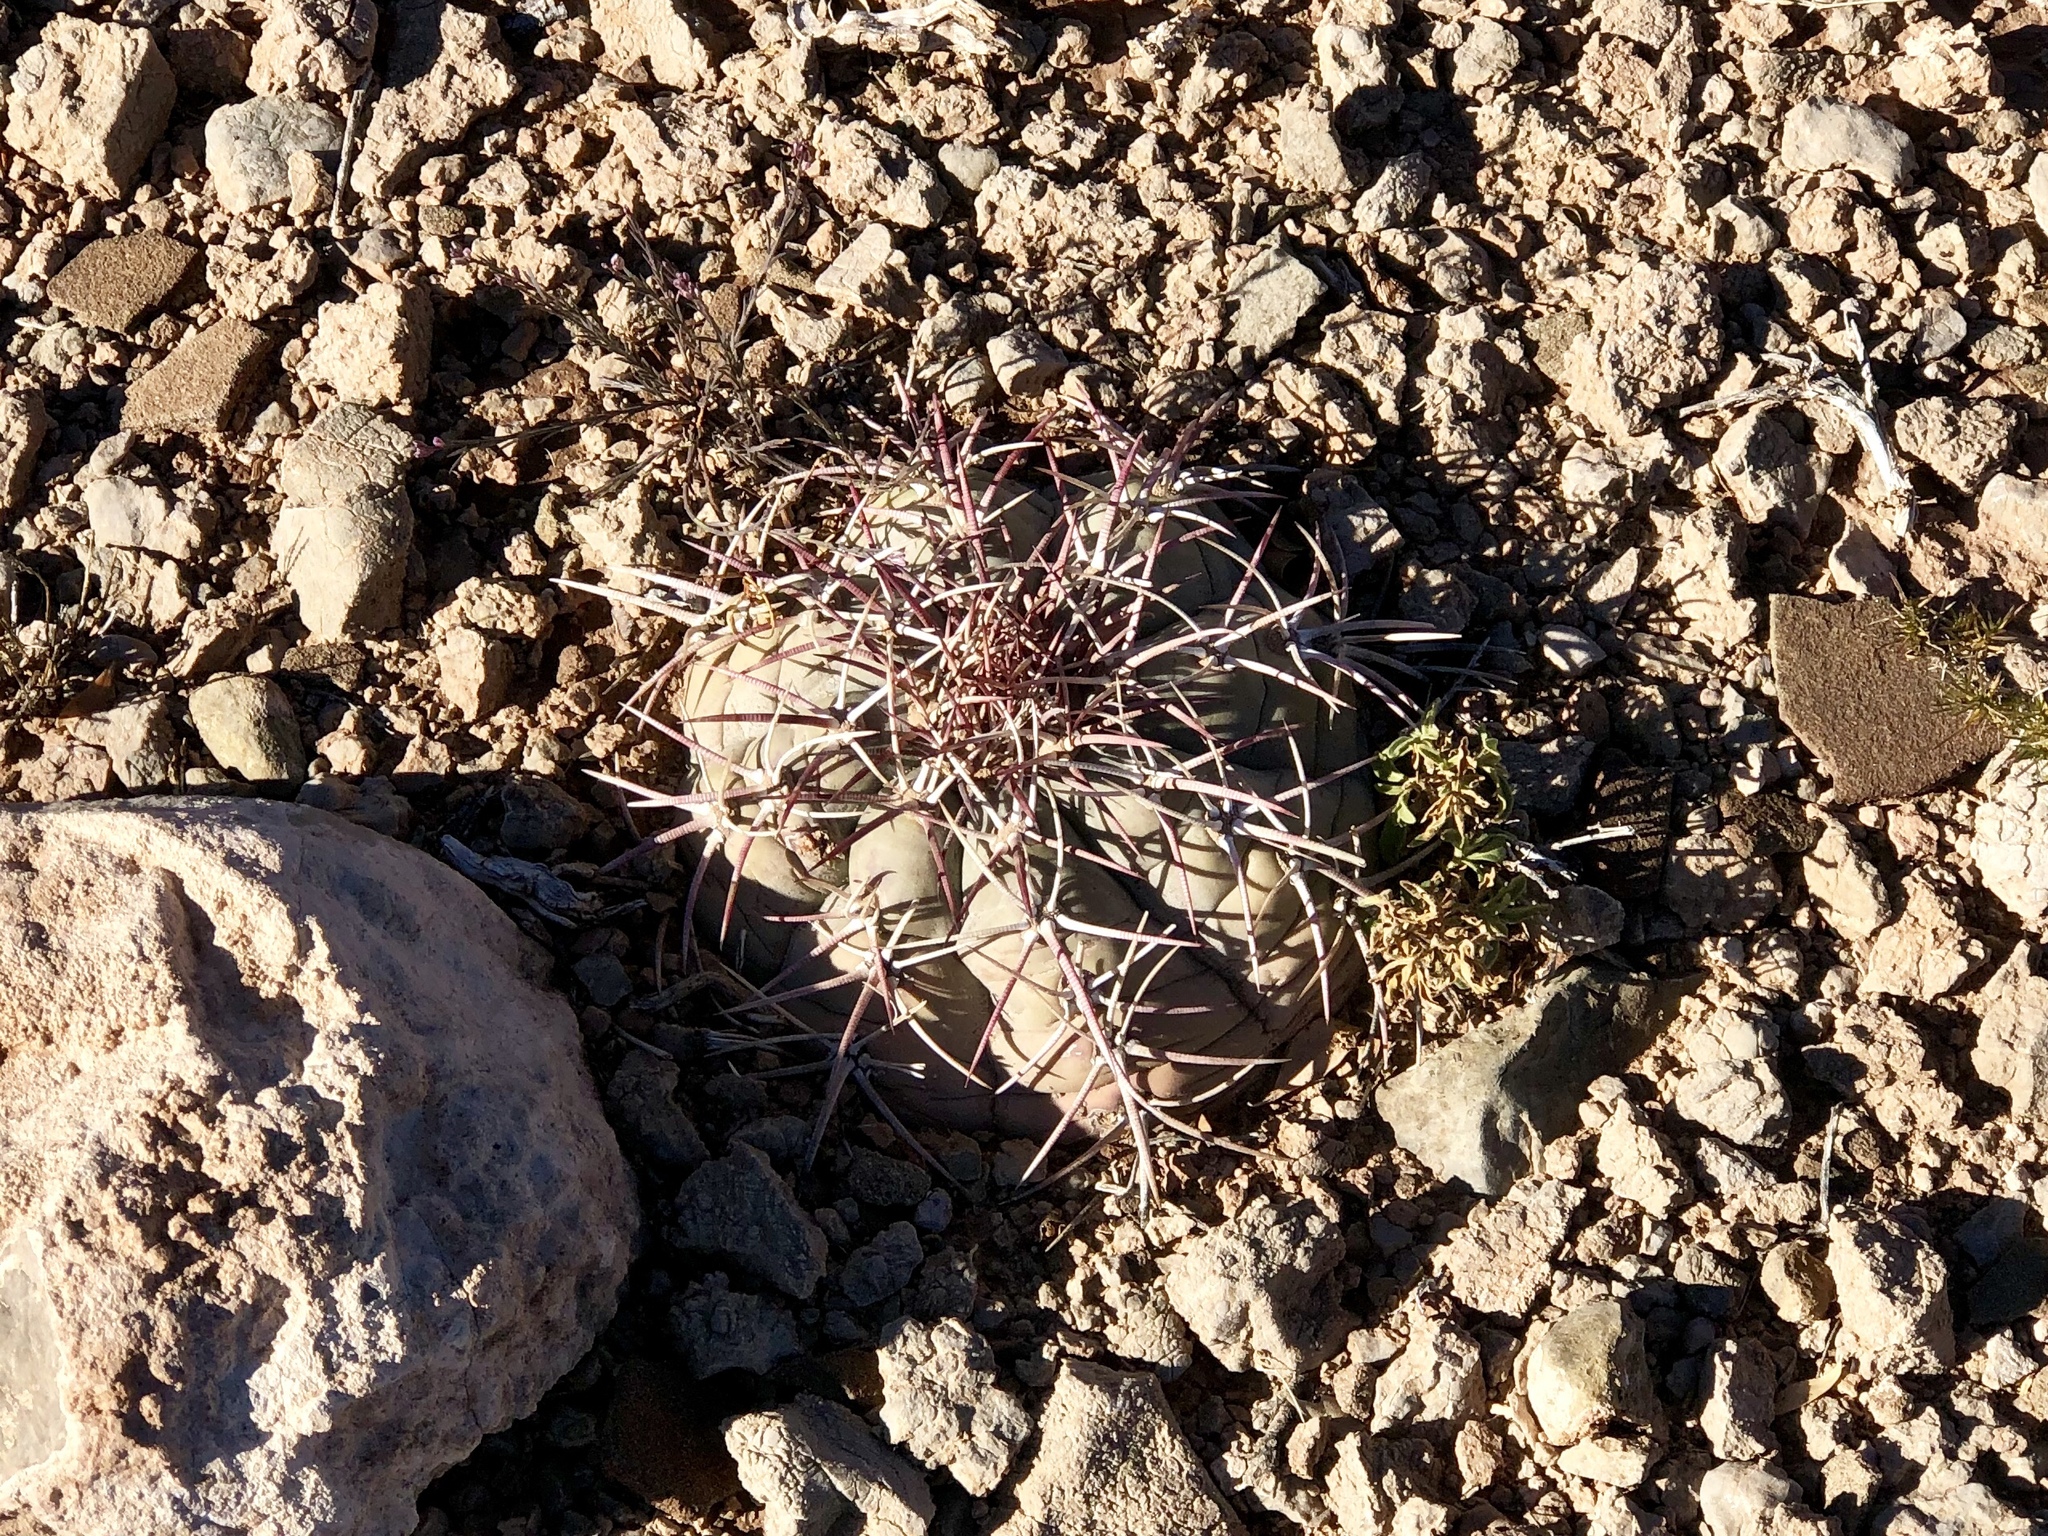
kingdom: Plantae
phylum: Tracheophyta
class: Magnoliopsida
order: Caryophyllales
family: Cactaceae
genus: Echinocactus
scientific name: Echinocactus horizonthalonius
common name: Devilshead
